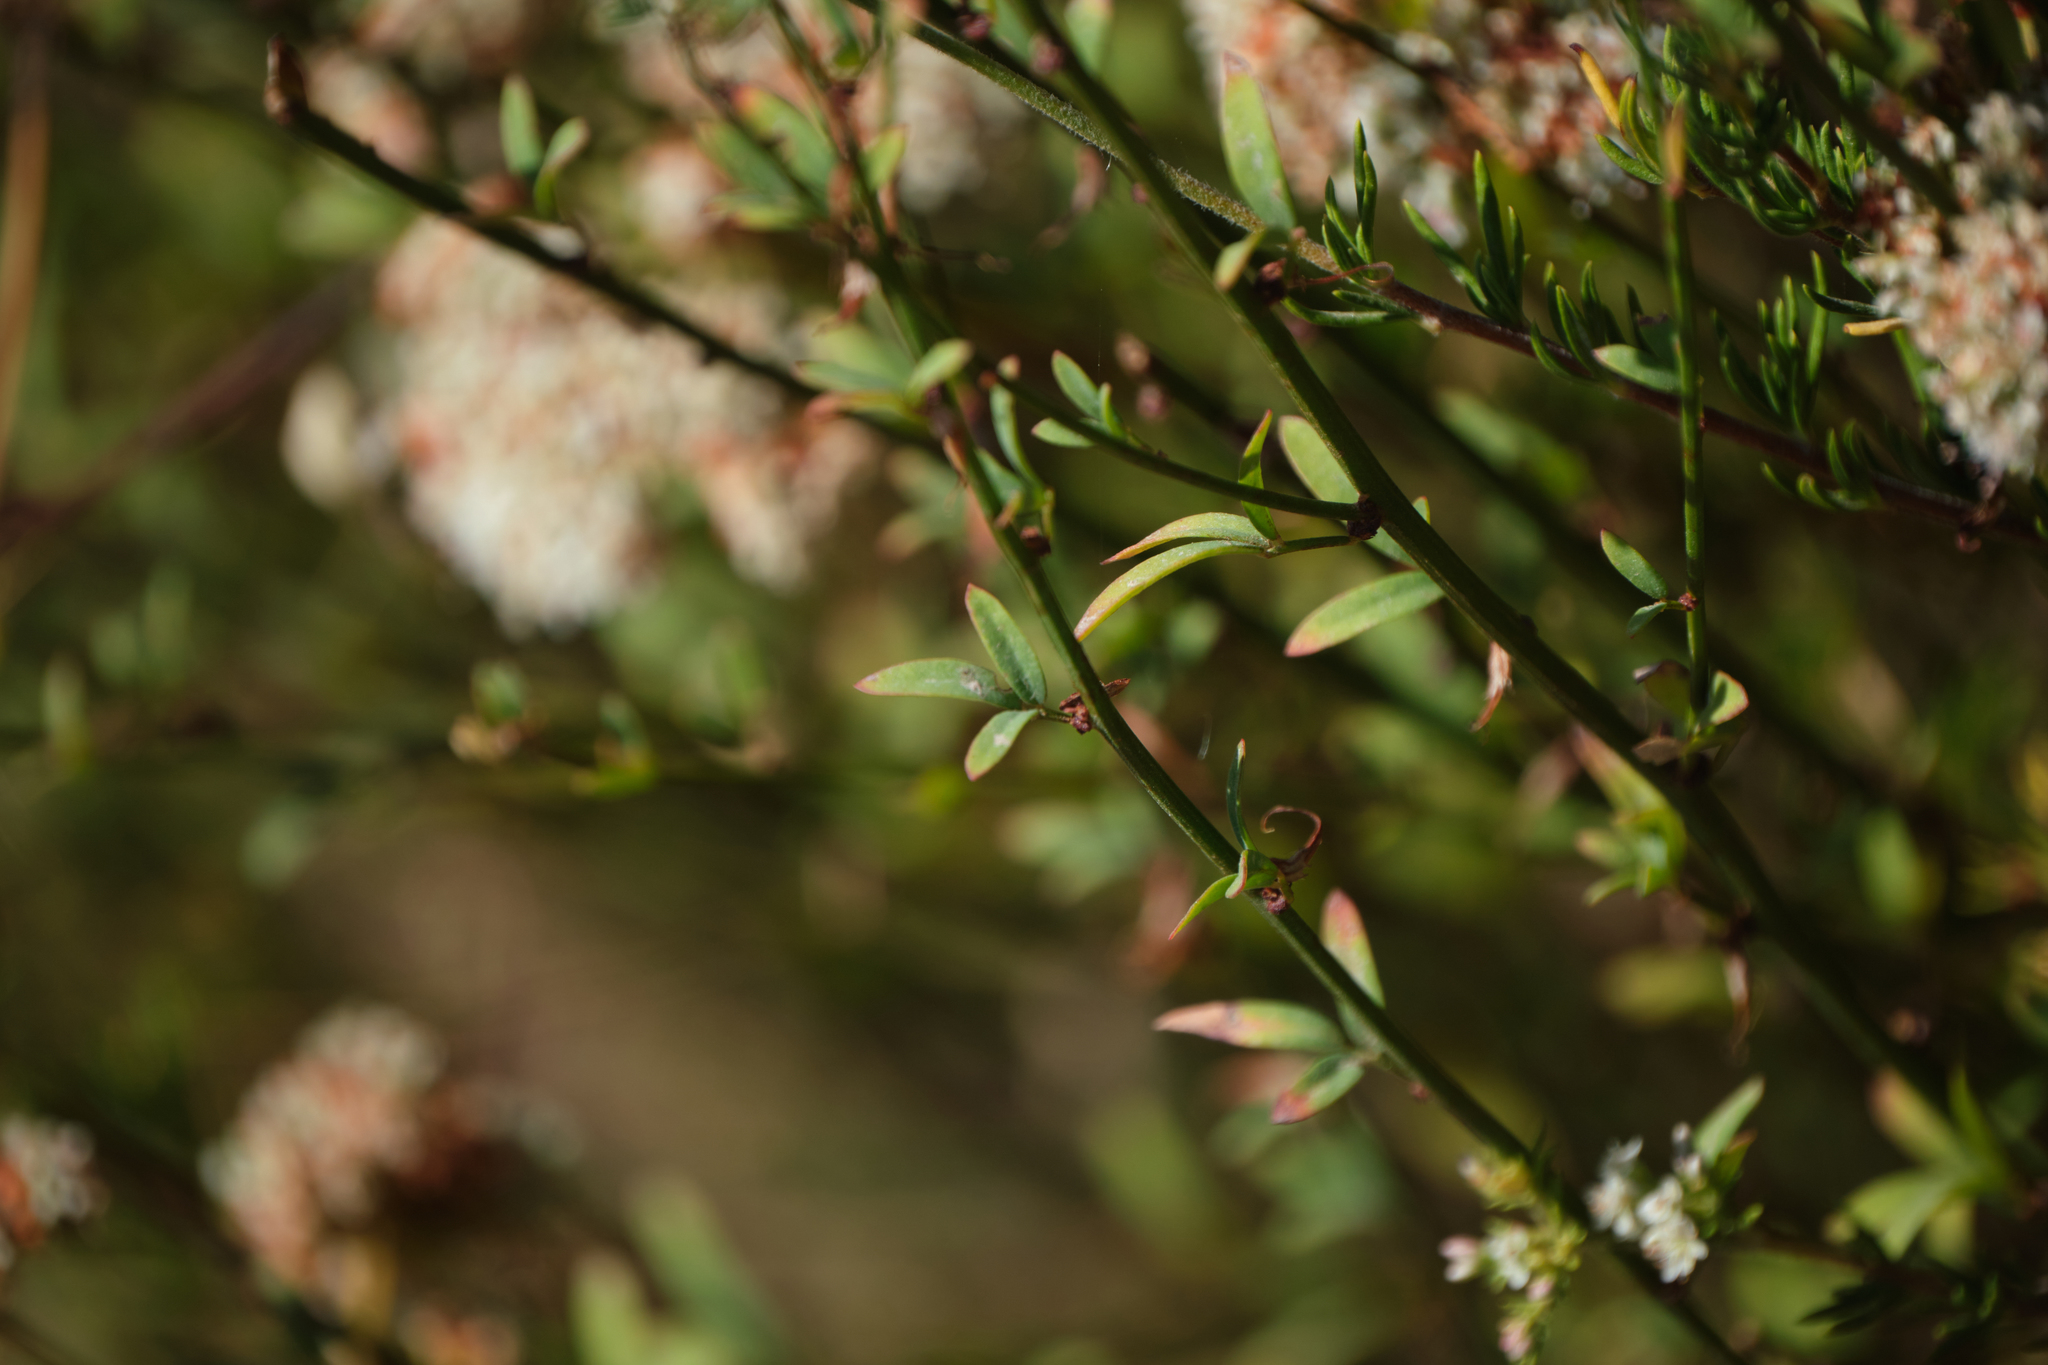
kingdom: Plantae
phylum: Tracheophyta
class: Magnoliopsida
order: Fabales
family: Fabaceae
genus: Acmispon
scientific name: Acmispon glaber
